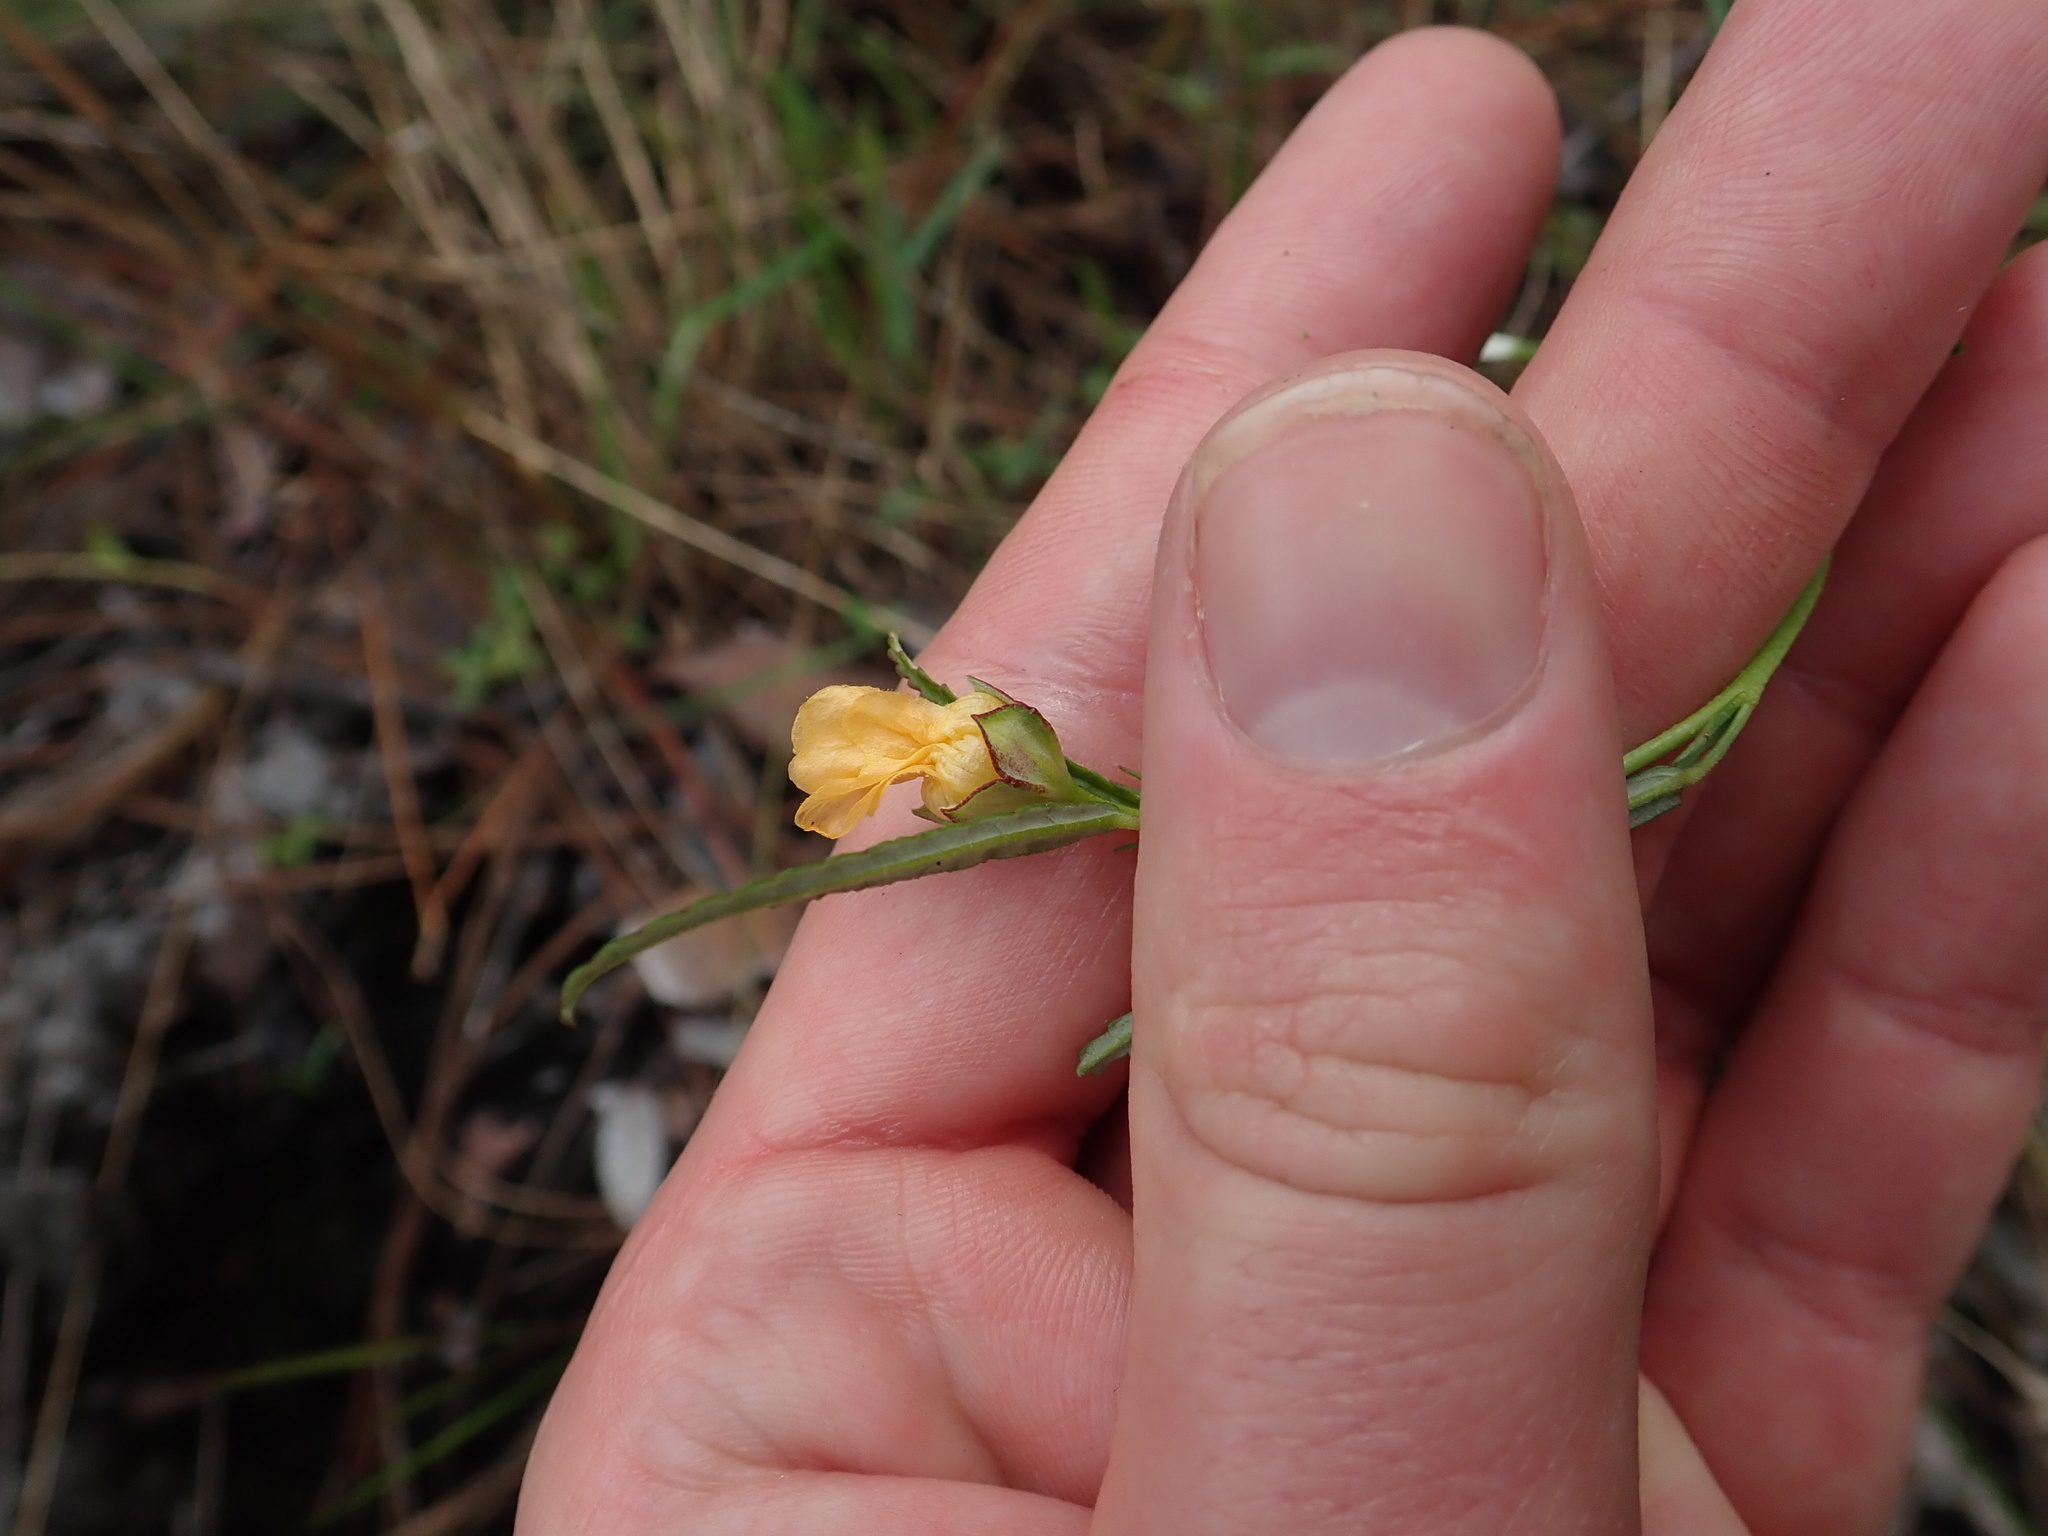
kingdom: Plantae
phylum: Tracheophyta
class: Magnoliopsida
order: Malvales
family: Malvaceae
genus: Sida
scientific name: Sida elliottii
